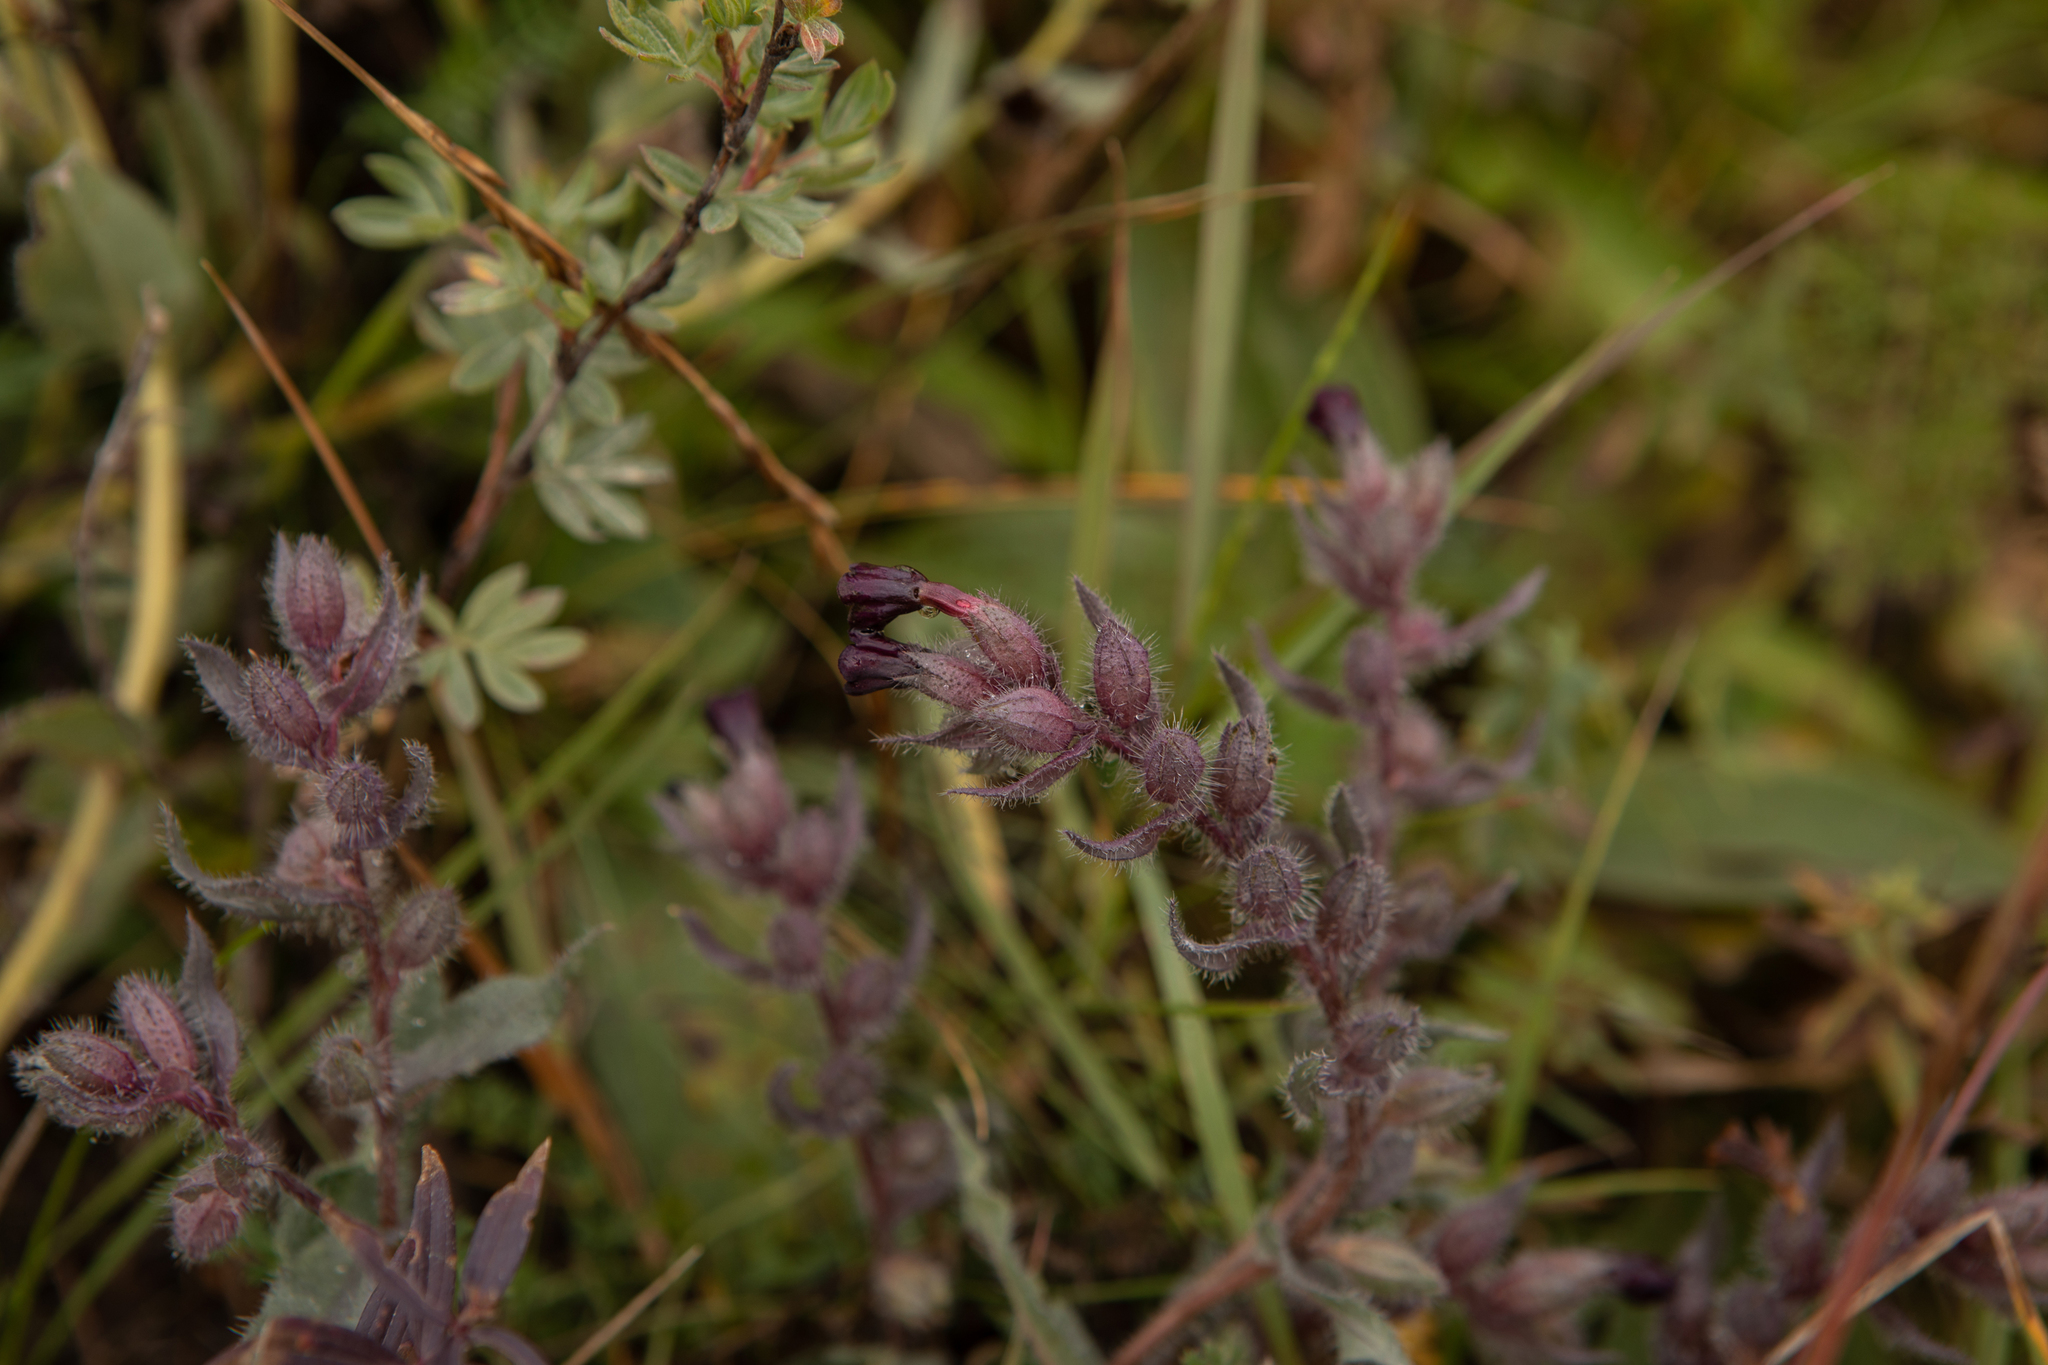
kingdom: Plantae
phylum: Tracheophyta
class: Magnoliopsida
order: Boraginales
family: Boraginaceae
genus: Nonea
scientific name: Nonea pulla
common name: Brown nonea
